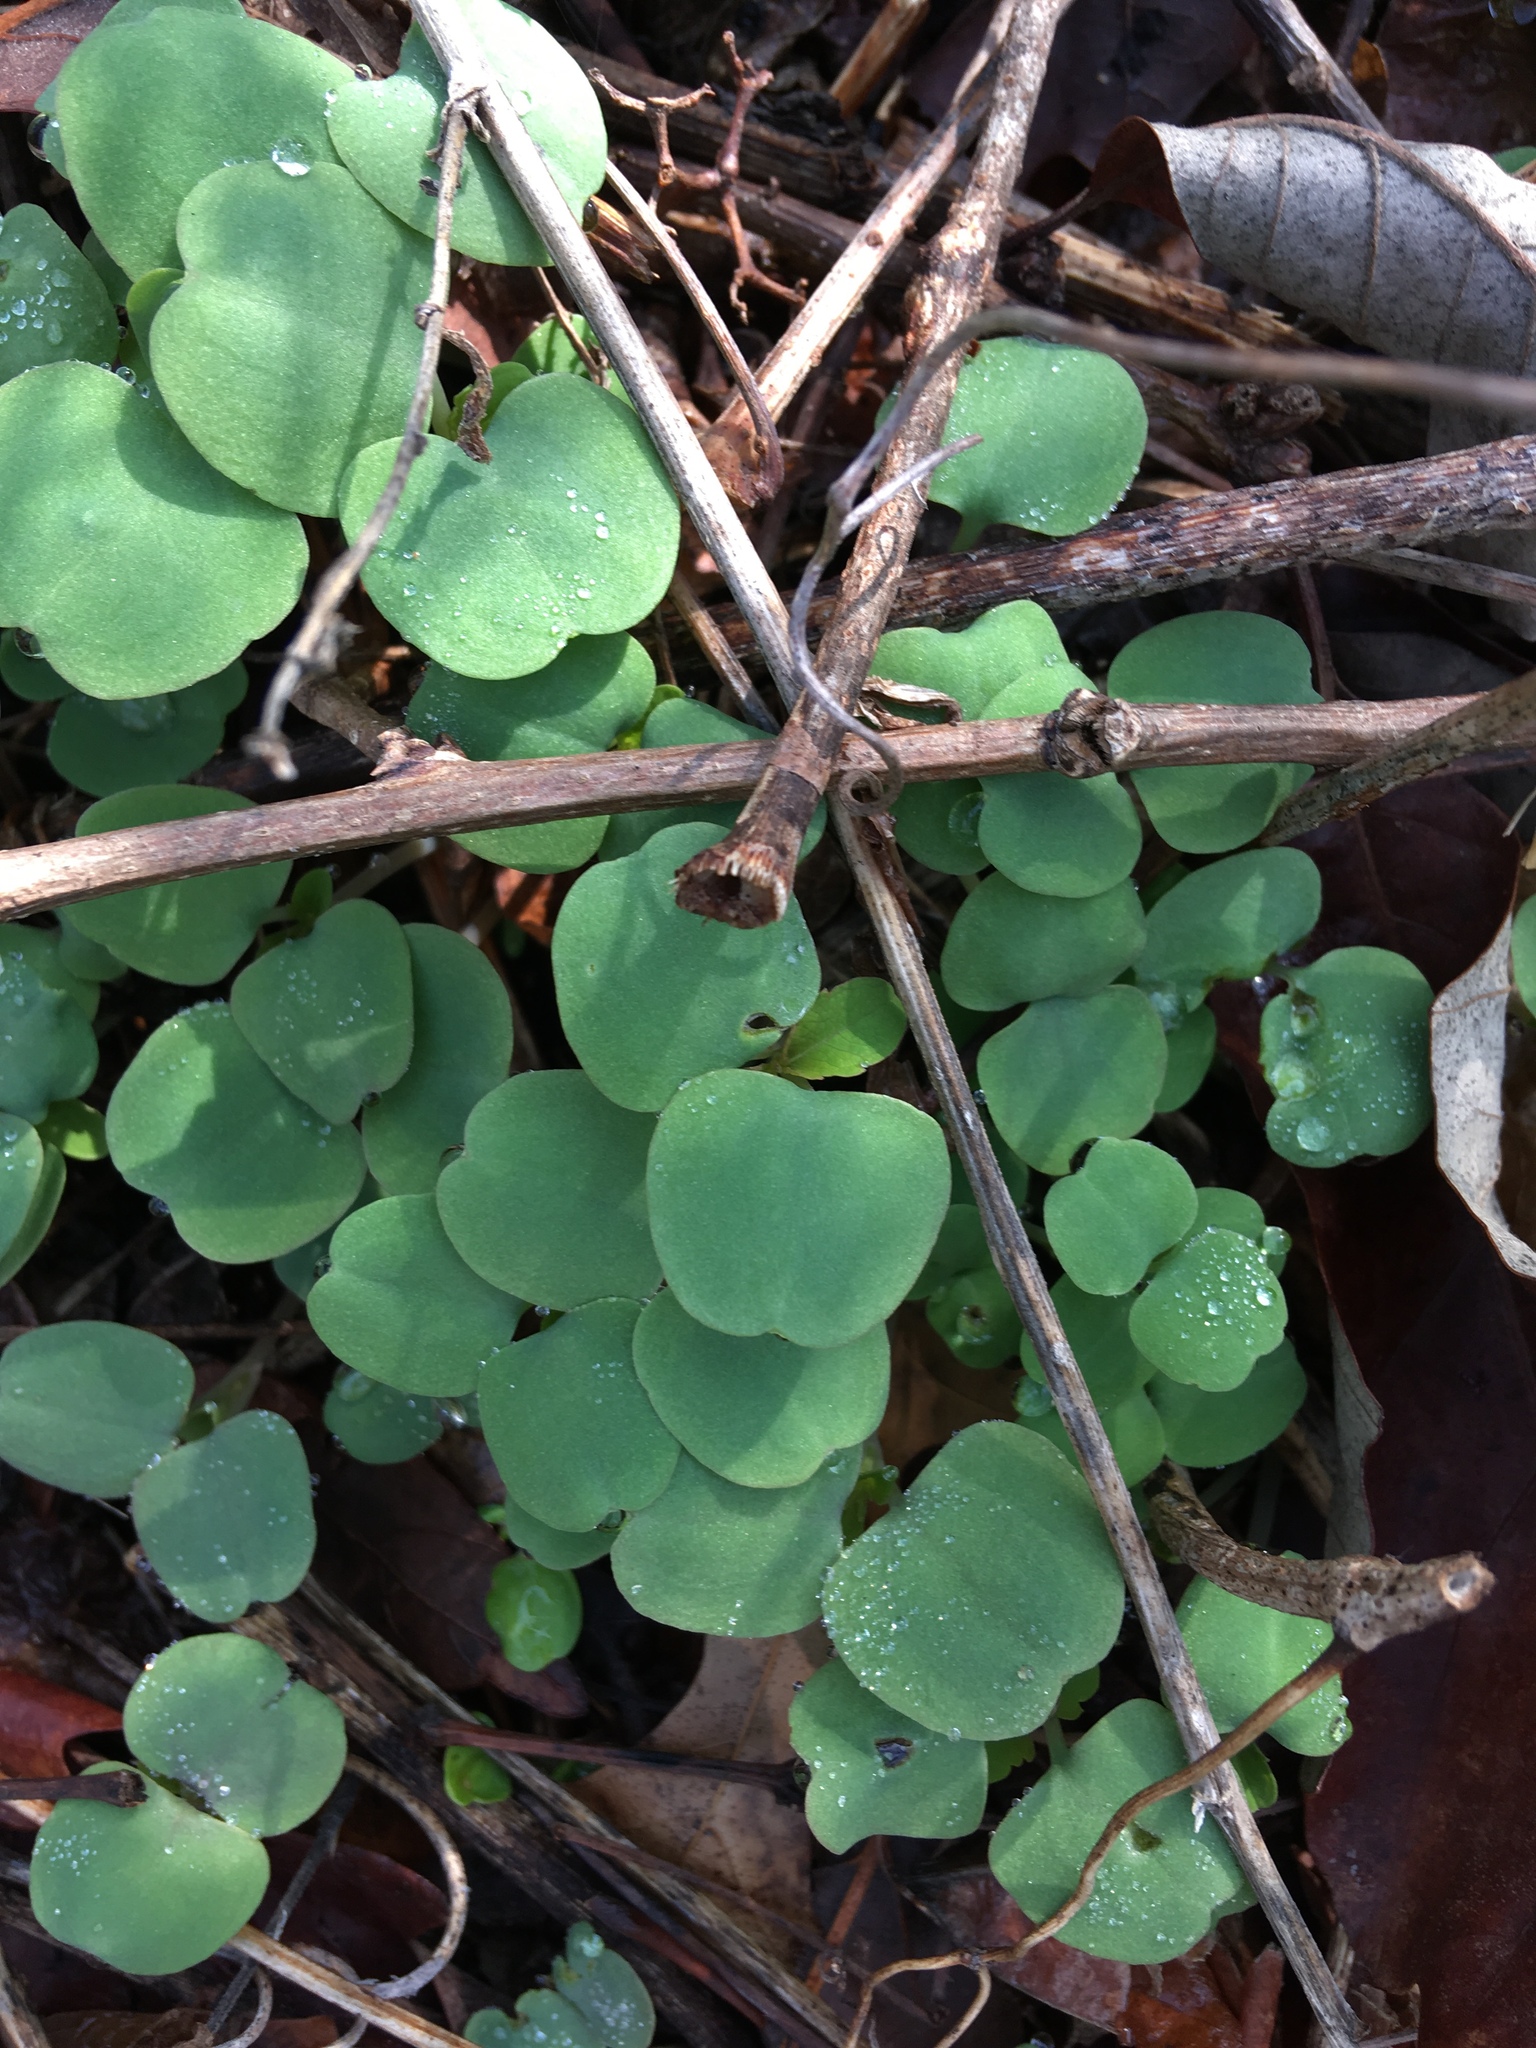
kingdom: Plantae
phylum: Tracheophyta
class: Magnoliopsida
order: Ericales
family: Balsaminaceae
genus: Impatiens
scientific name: Impatiens
